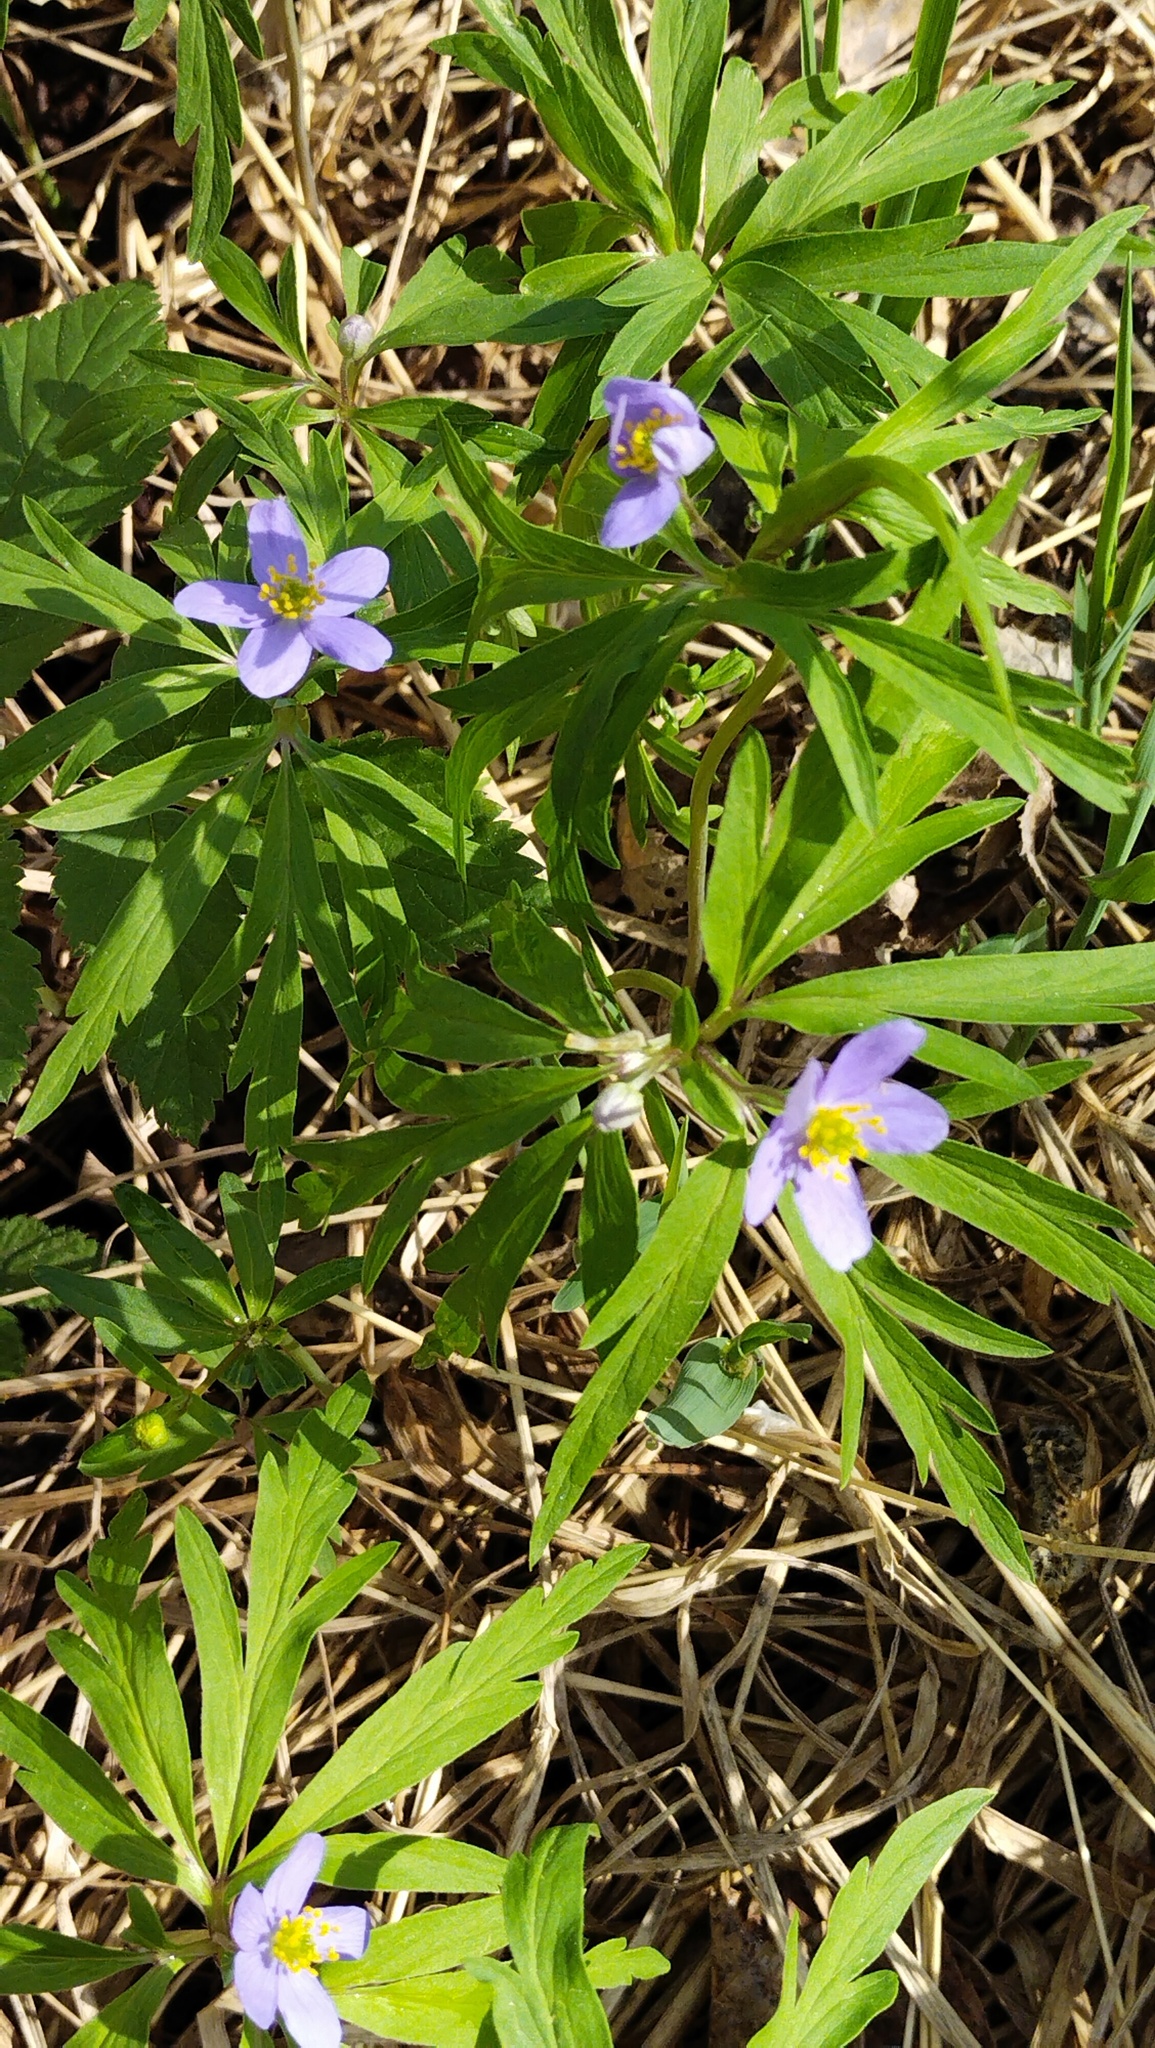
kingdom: Plantae
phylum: Tracheophyta
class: Magnoliopsida
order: Ranunculales
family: Ranunculaceae
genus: Anemone
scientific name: Anemone caerulea
